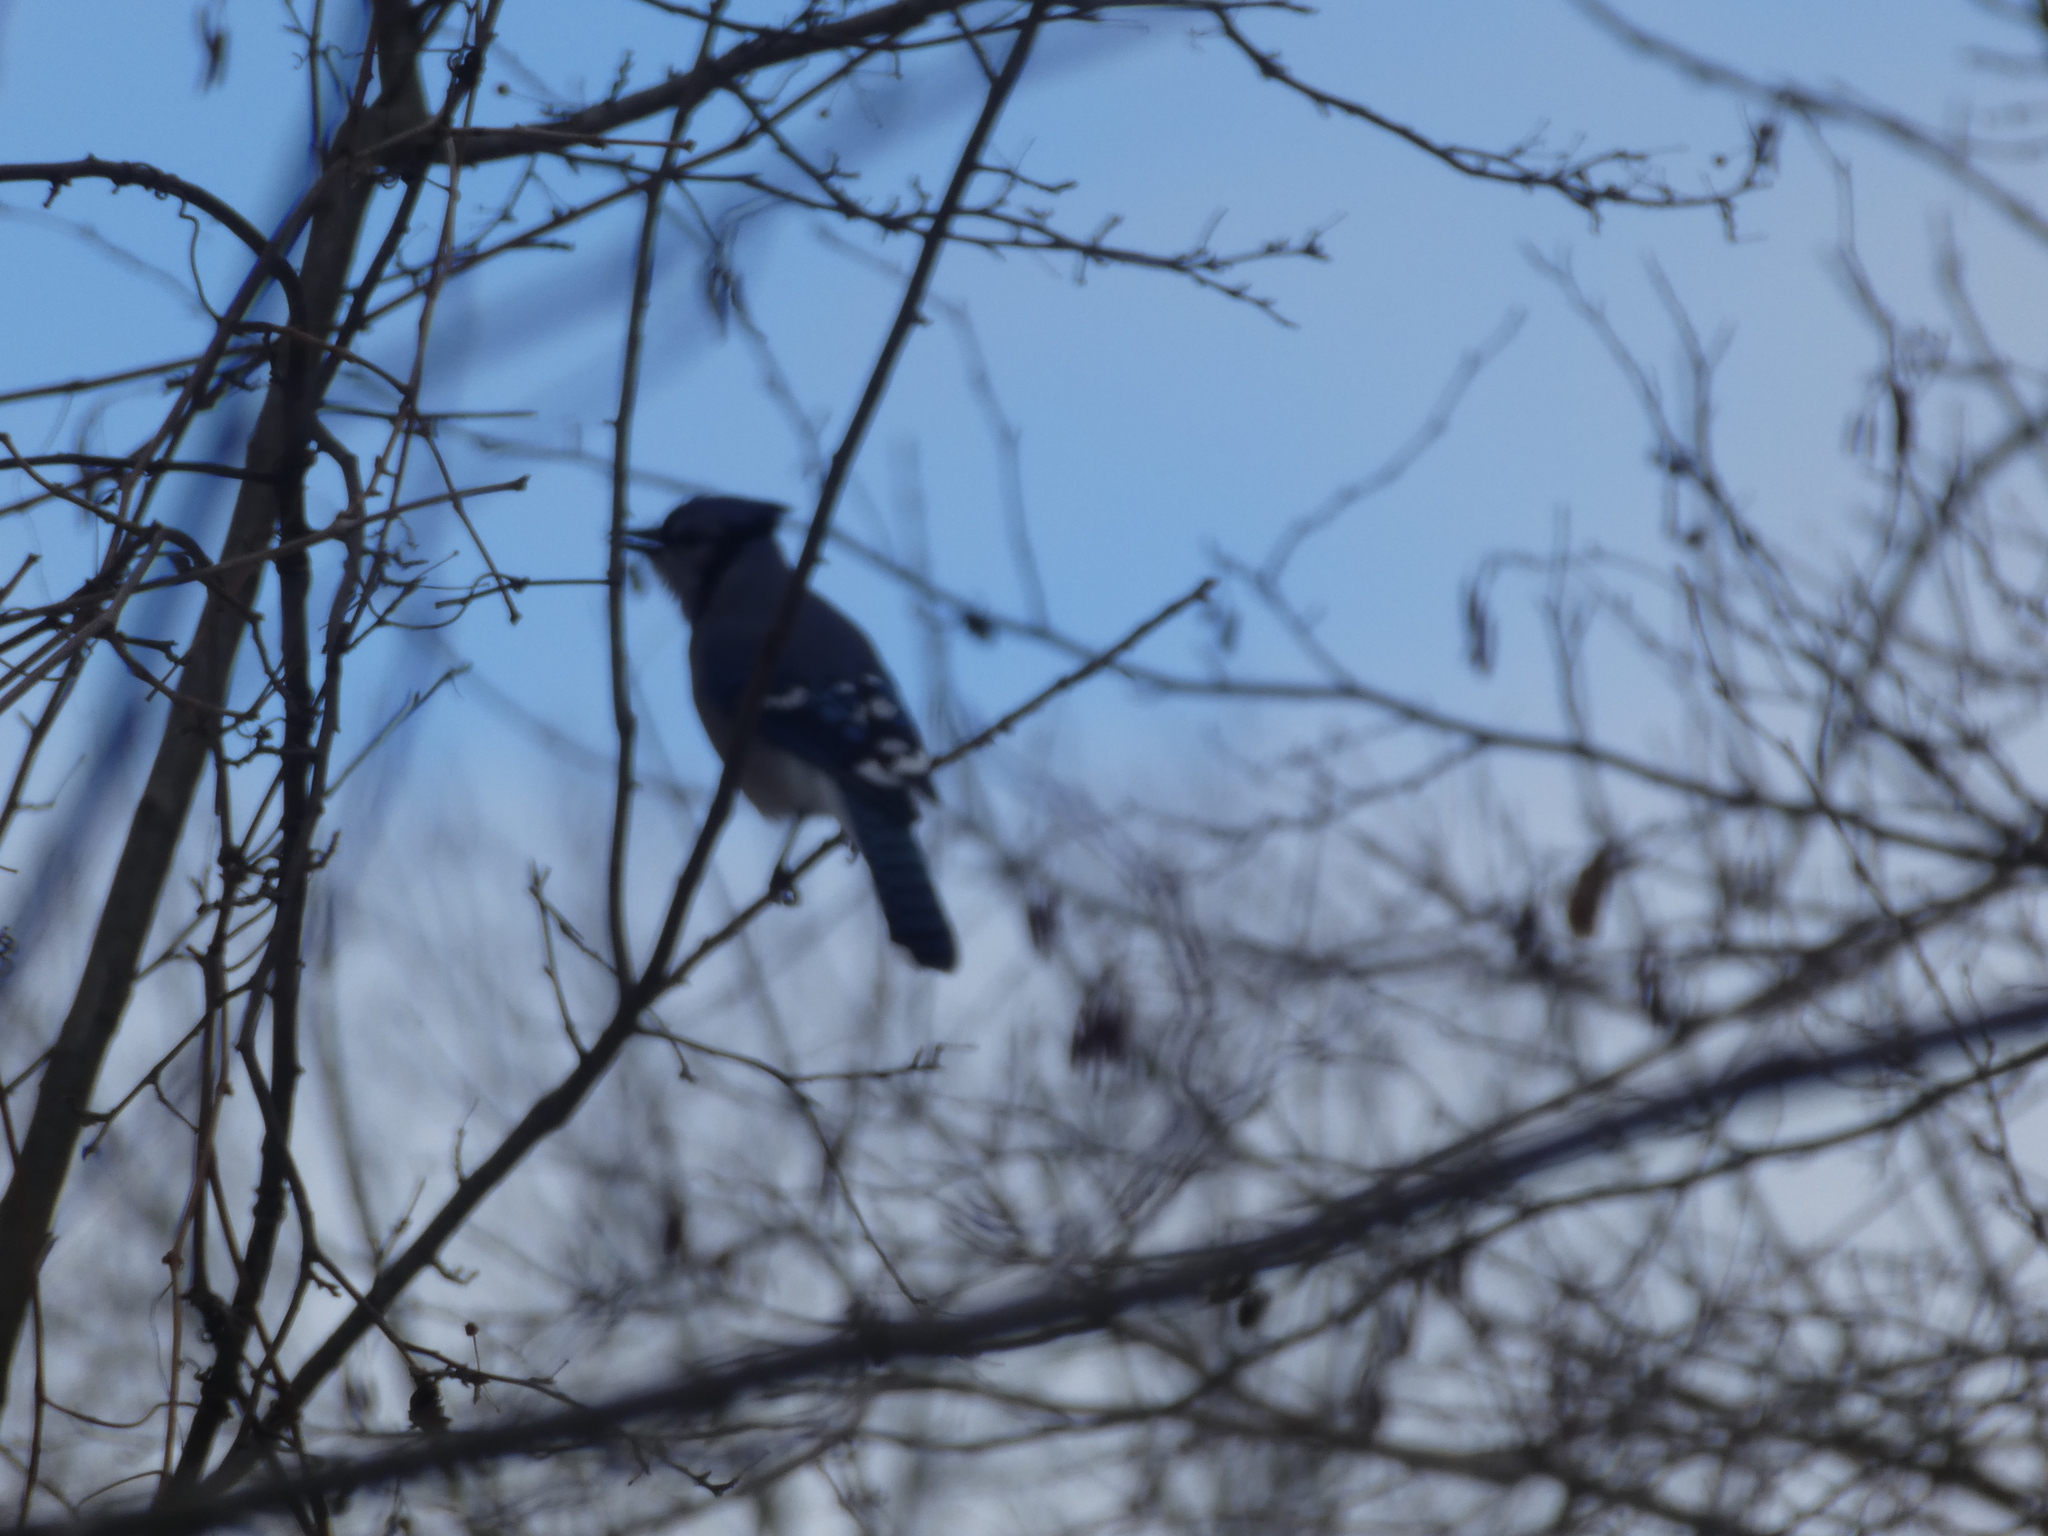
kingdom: Animalia
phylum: Chordata
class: Aves
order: Passeriformes
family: Corvidae
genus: Cyanocitta
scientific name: Cyanocitta cristata
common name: Blue jay
